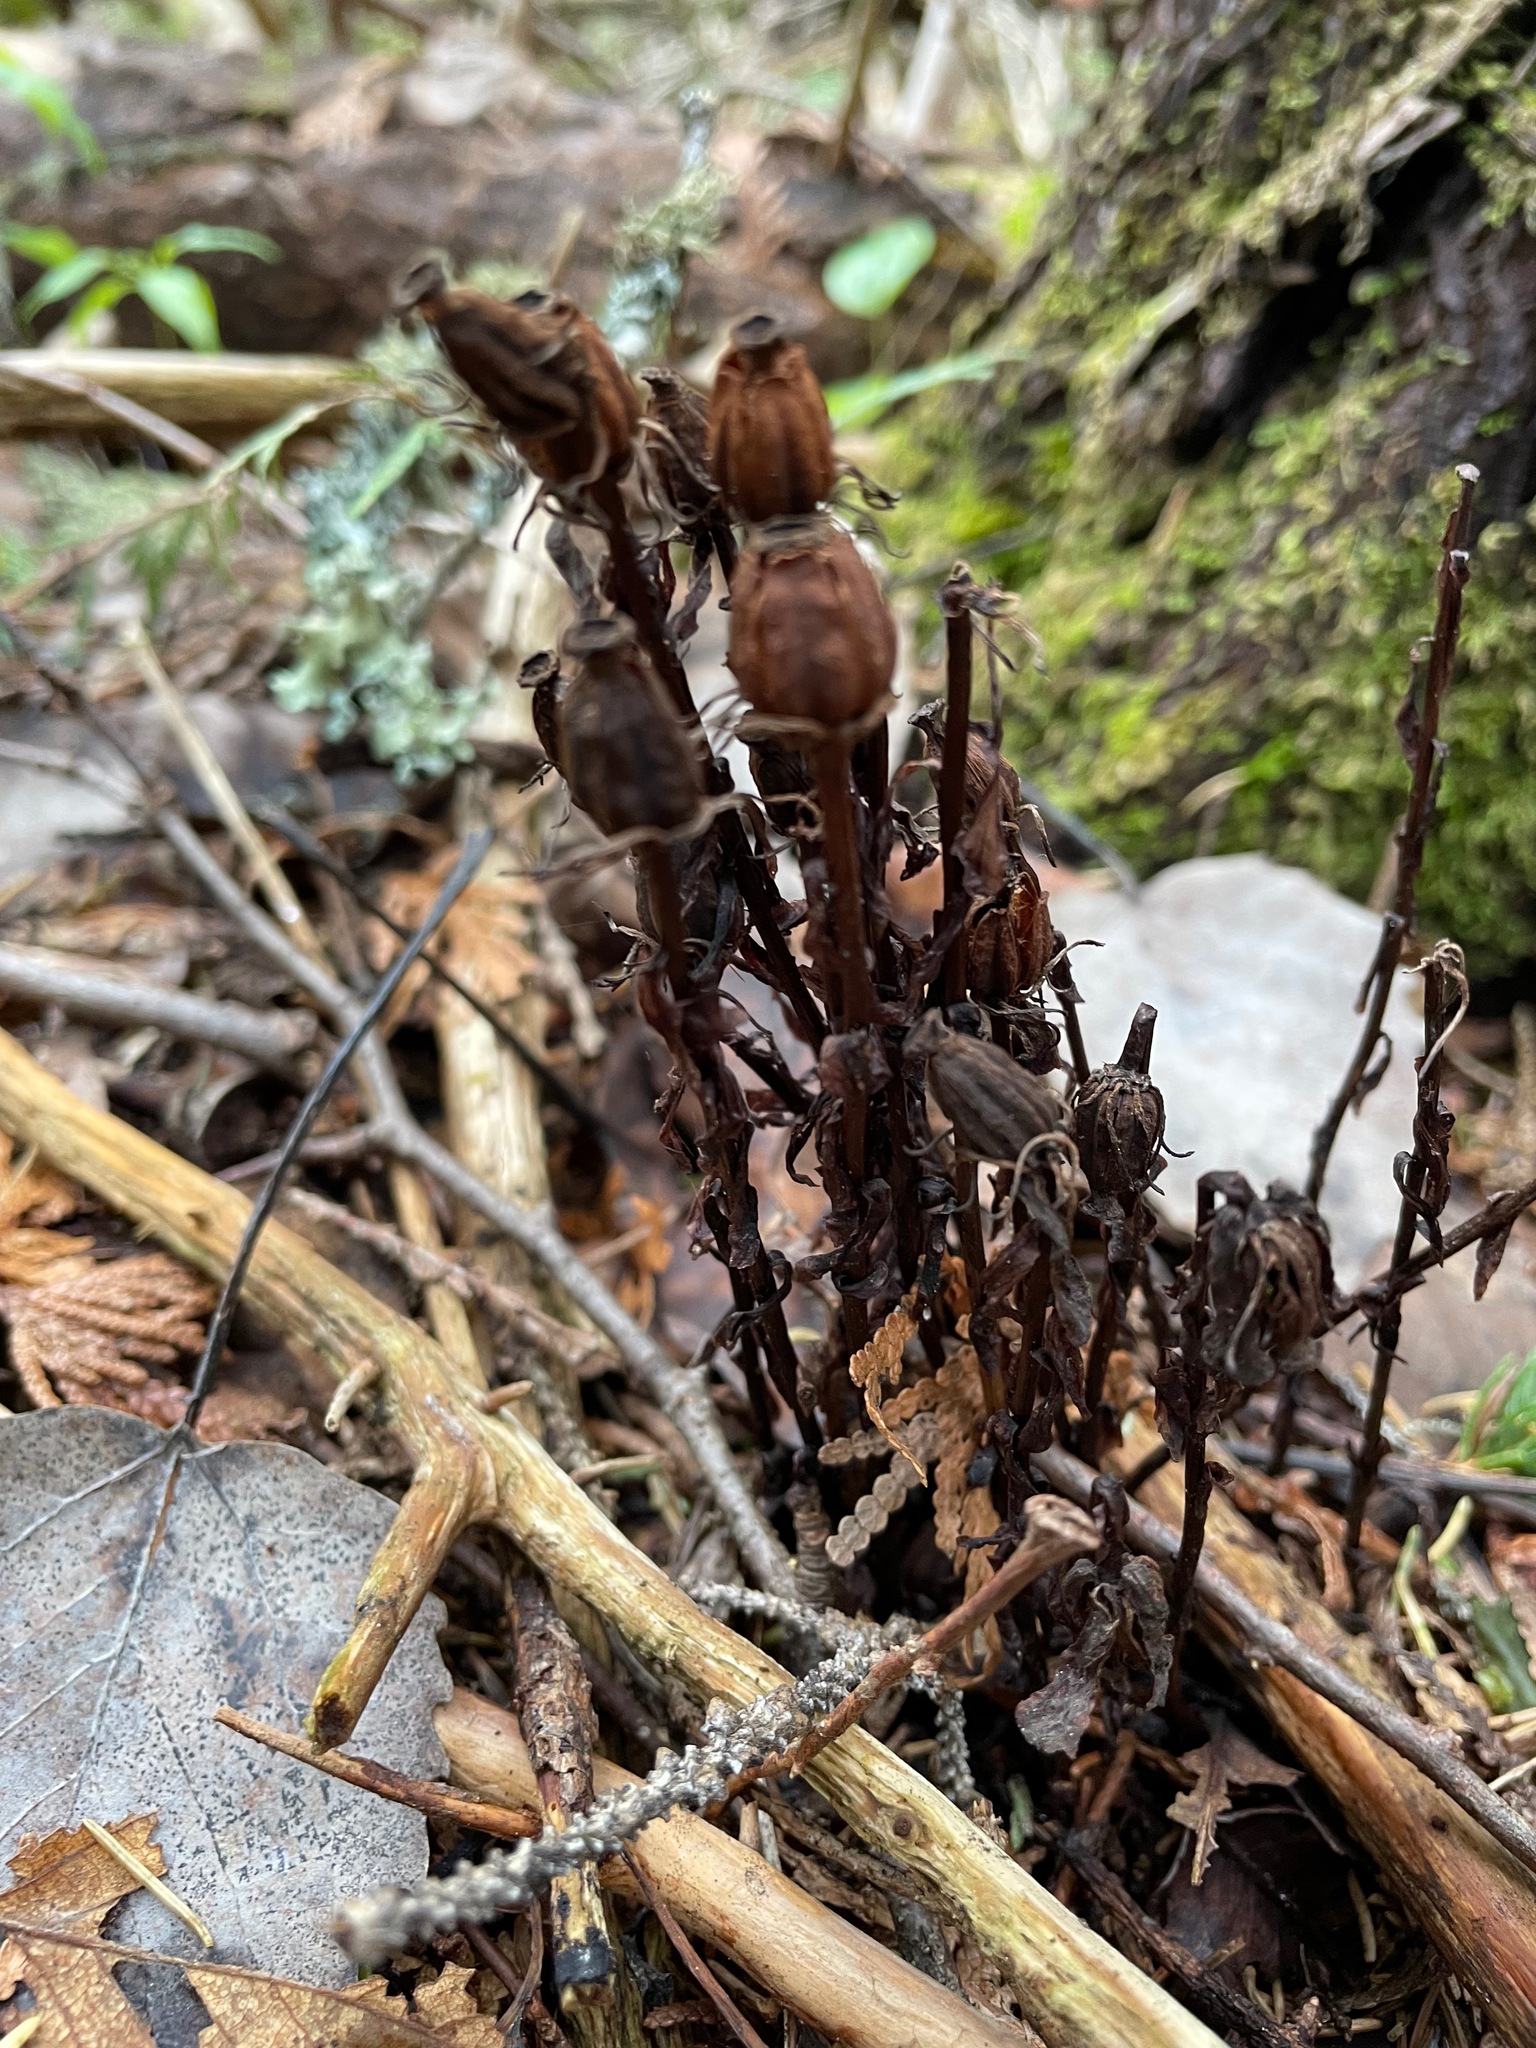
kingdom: Plantae
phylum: Tracheophyta
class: Magnoliopsida
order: Ericales
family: Ericaceae
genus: Monotropa
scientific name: Monotropa uniflora
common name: Convulsion root
